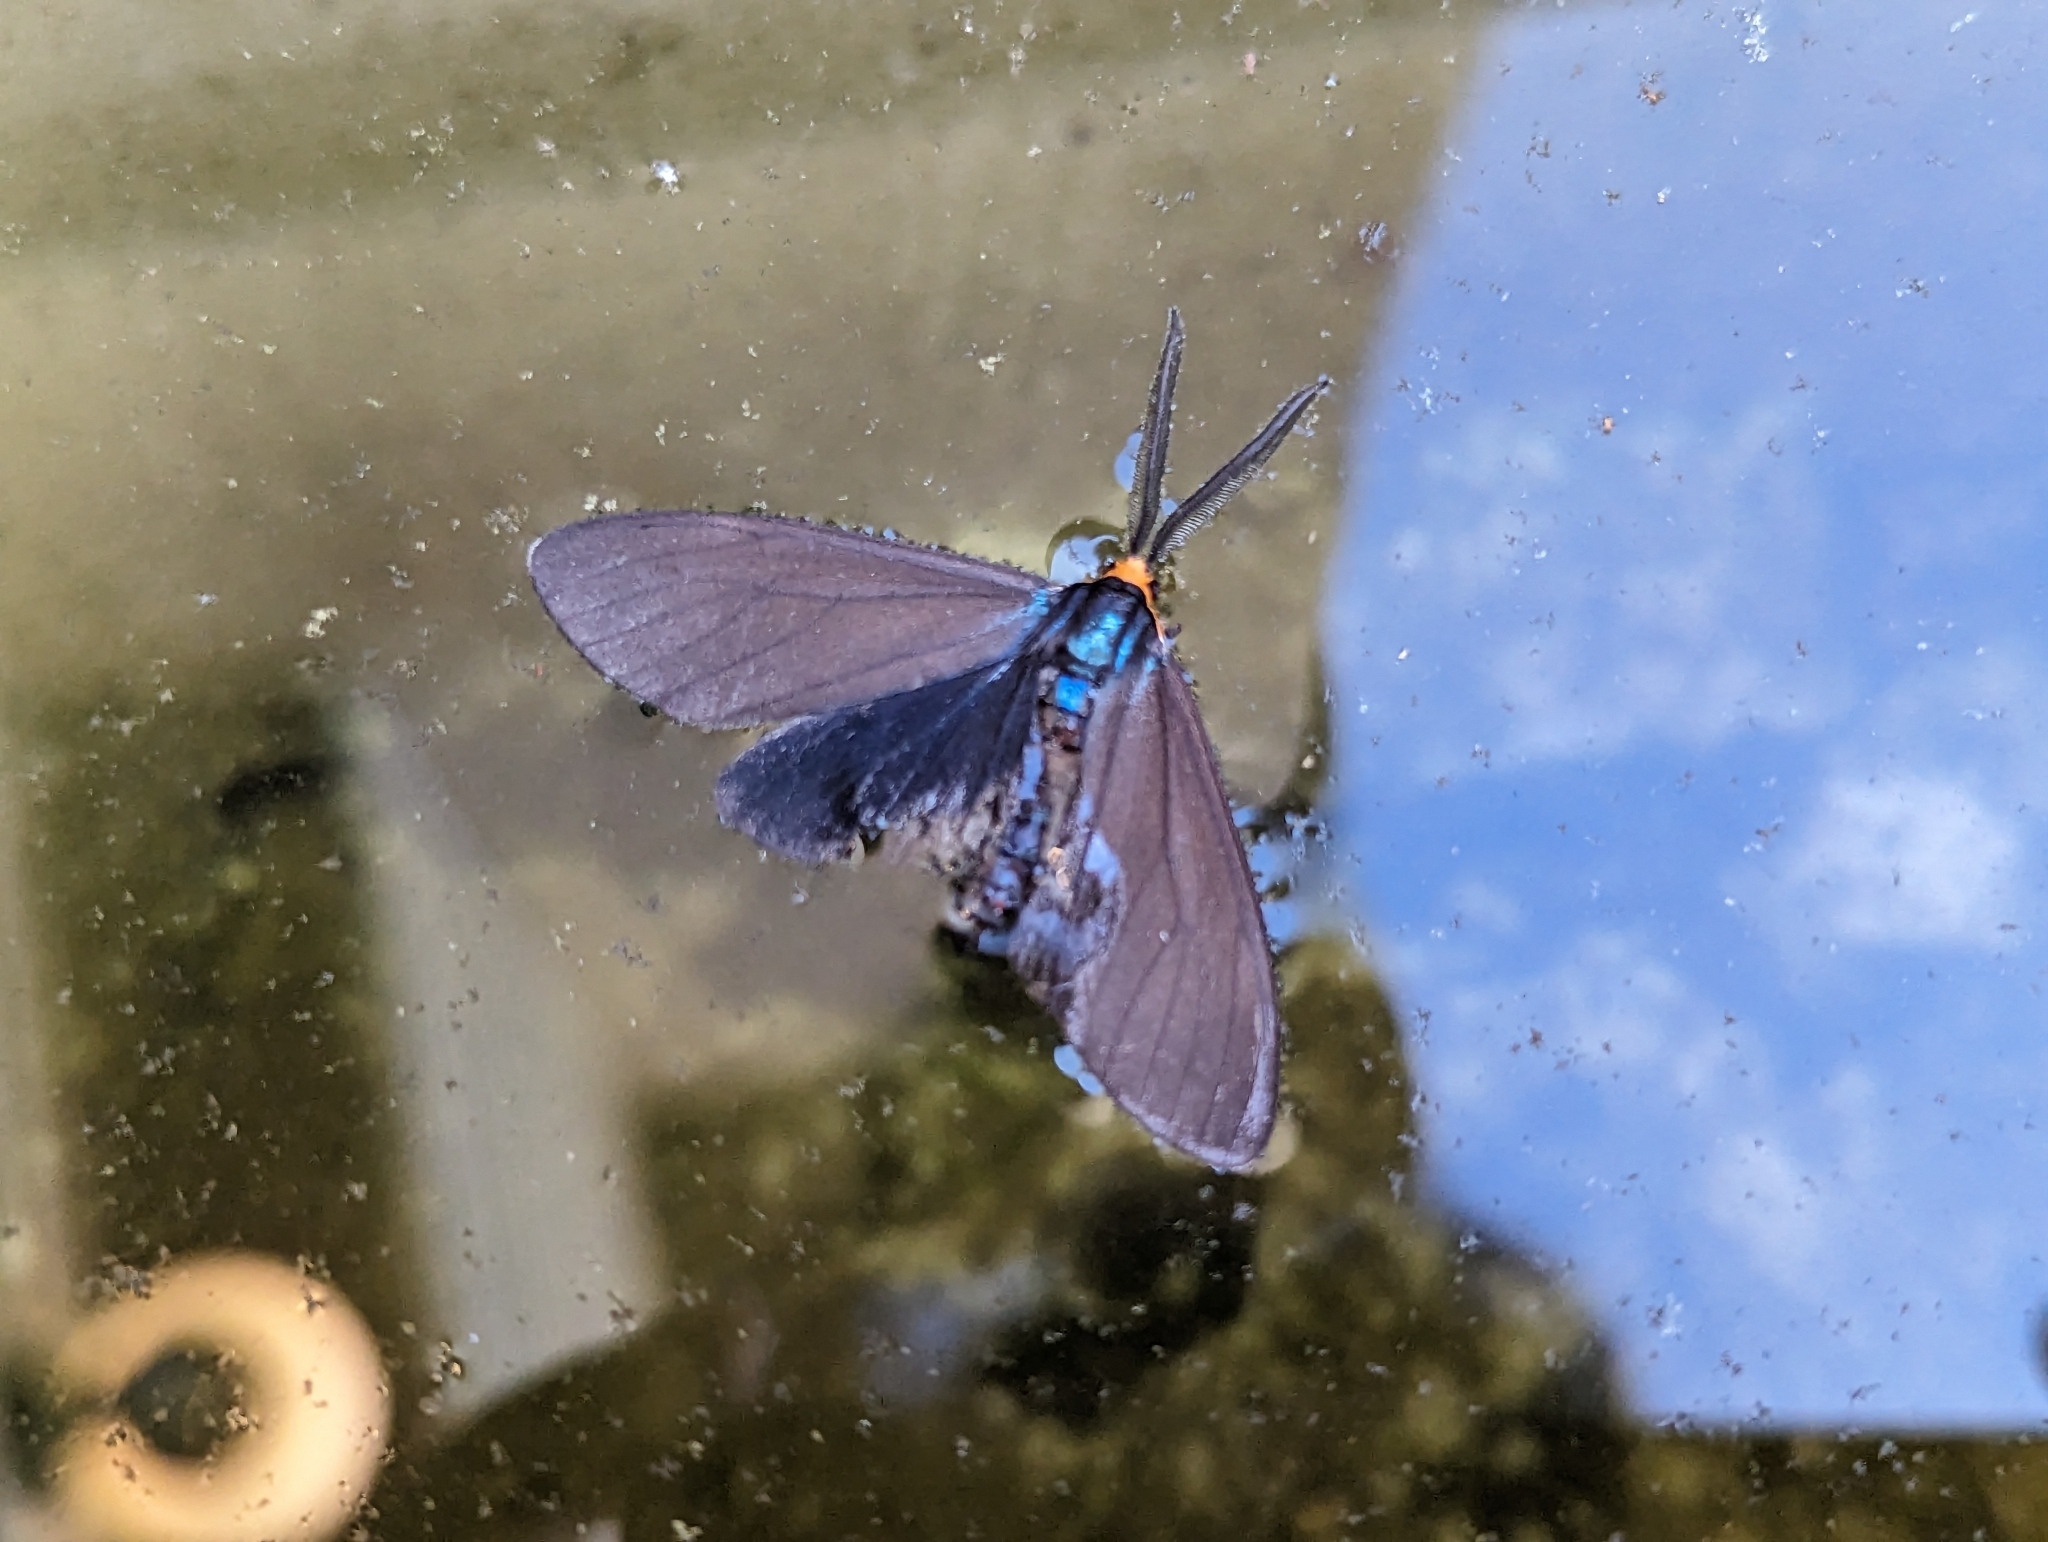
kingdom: Animalia
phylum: Arthropoda
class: Insecta
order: Lepidoptera
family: Erebidae
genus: Ctenucha
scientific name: Ctenucha virginica
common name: Virginia ctenucha moth
